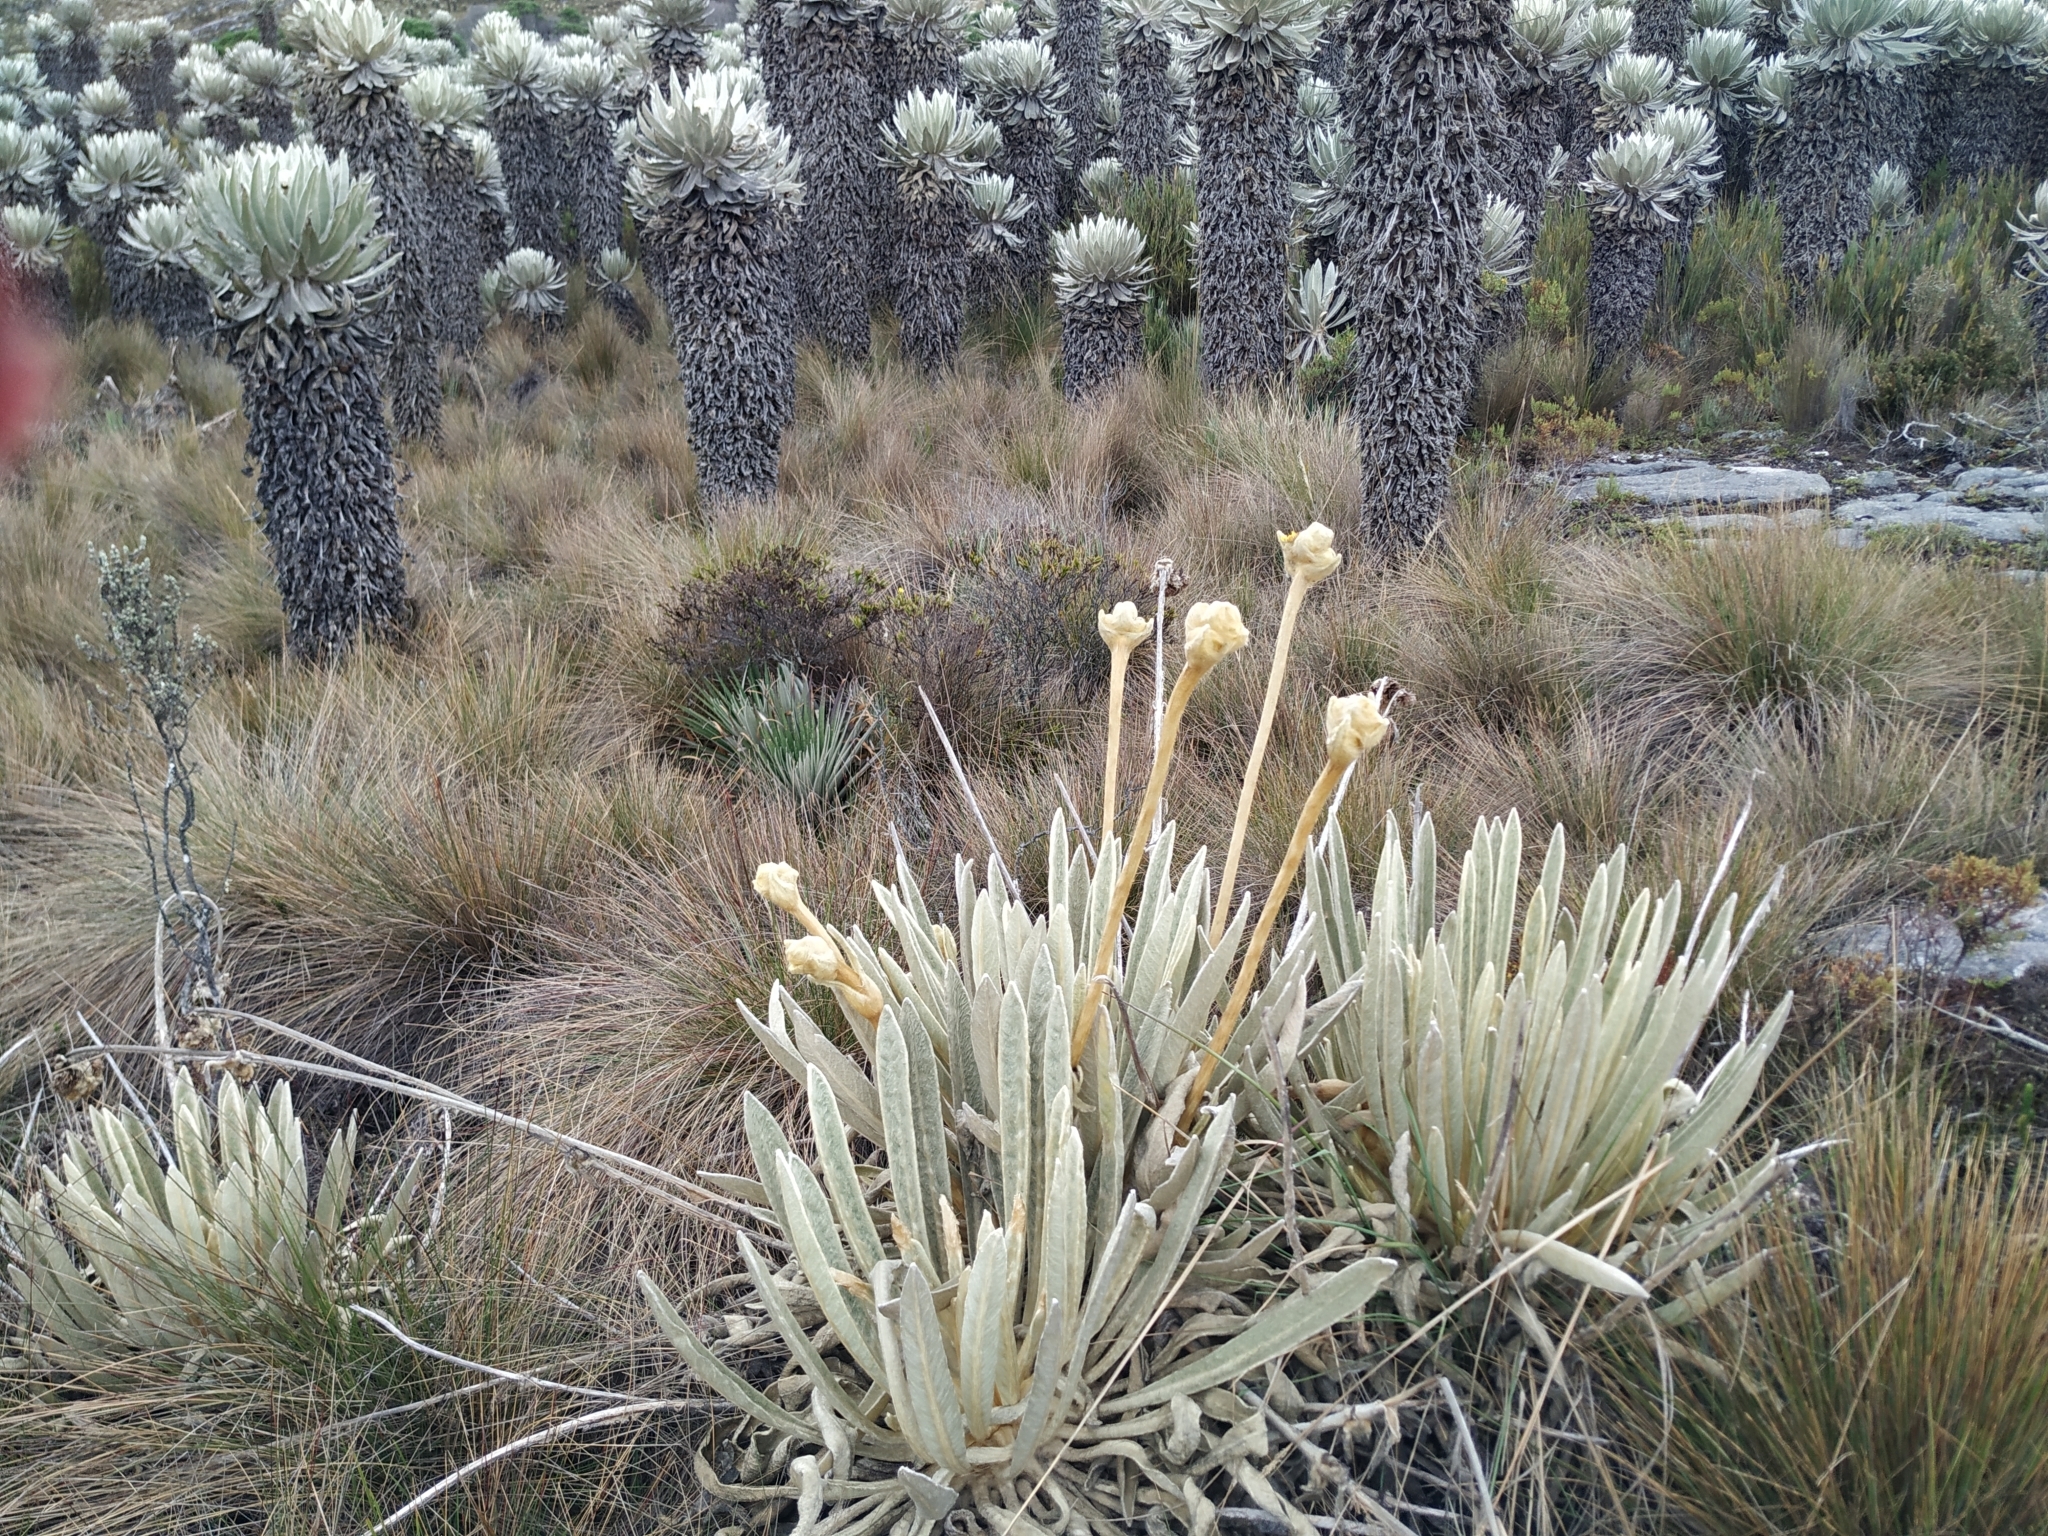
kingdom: Plantae
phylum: Tracheophyta
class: Magnoliopsida
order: Asterales
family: Asteraceae
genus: Espeletia
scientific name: Espeletia congestiflora
